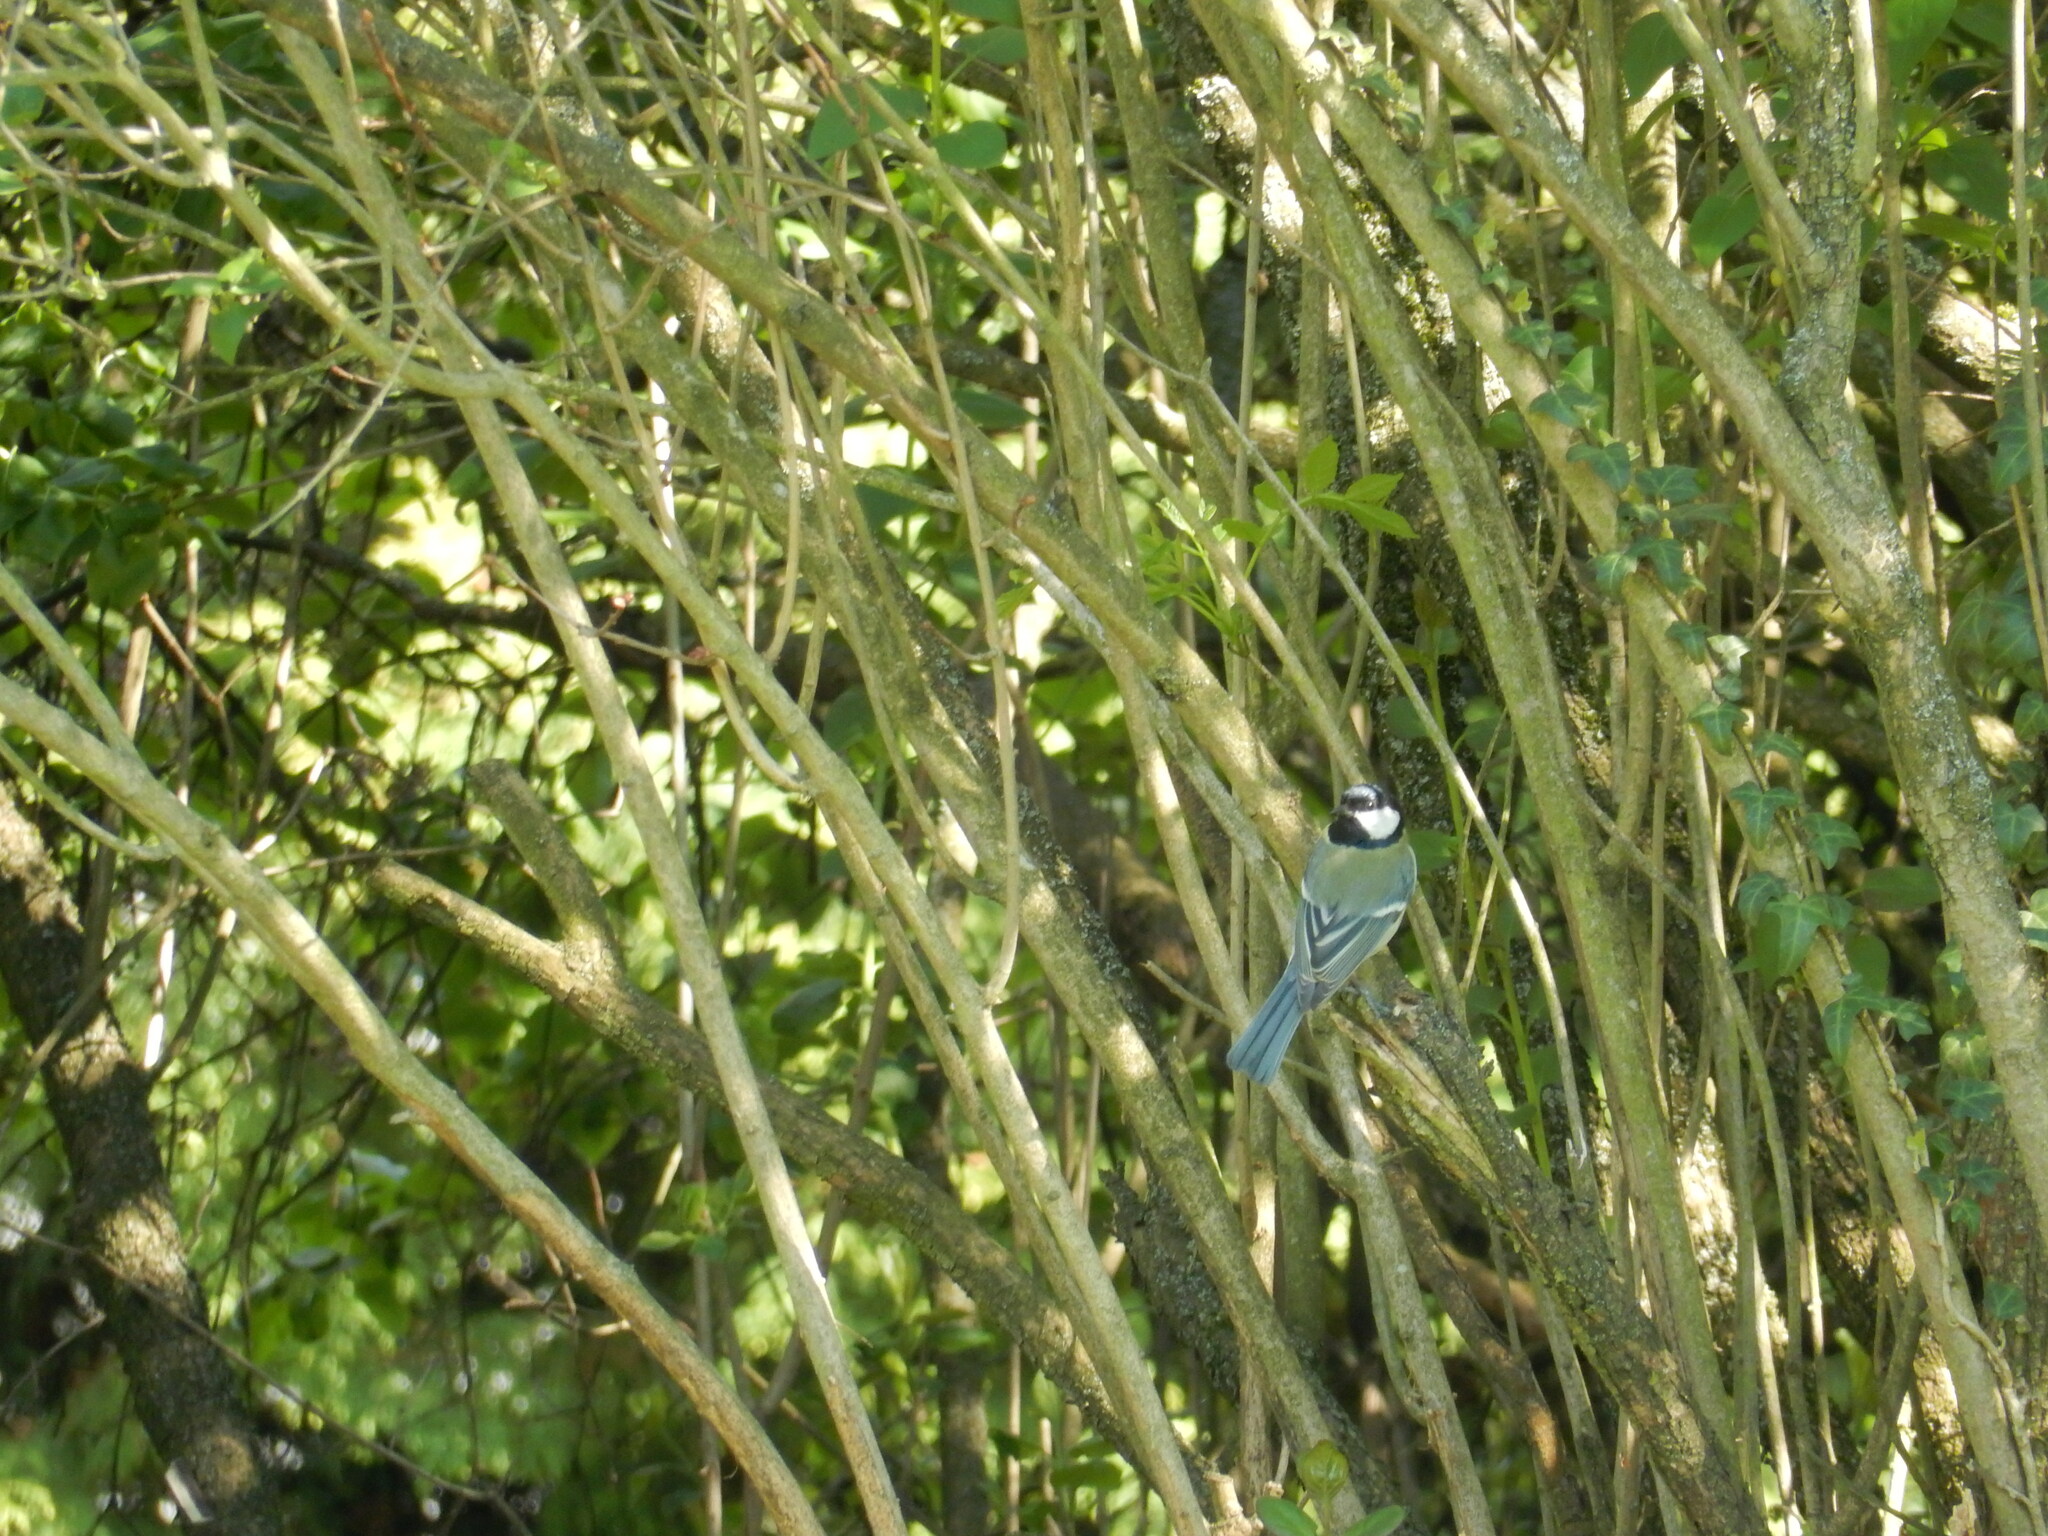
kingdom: Animalia
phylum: Chordata
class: Aves
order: Passeriformes
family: Paridae
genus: Parus
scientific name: Parus major
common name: Great tit
